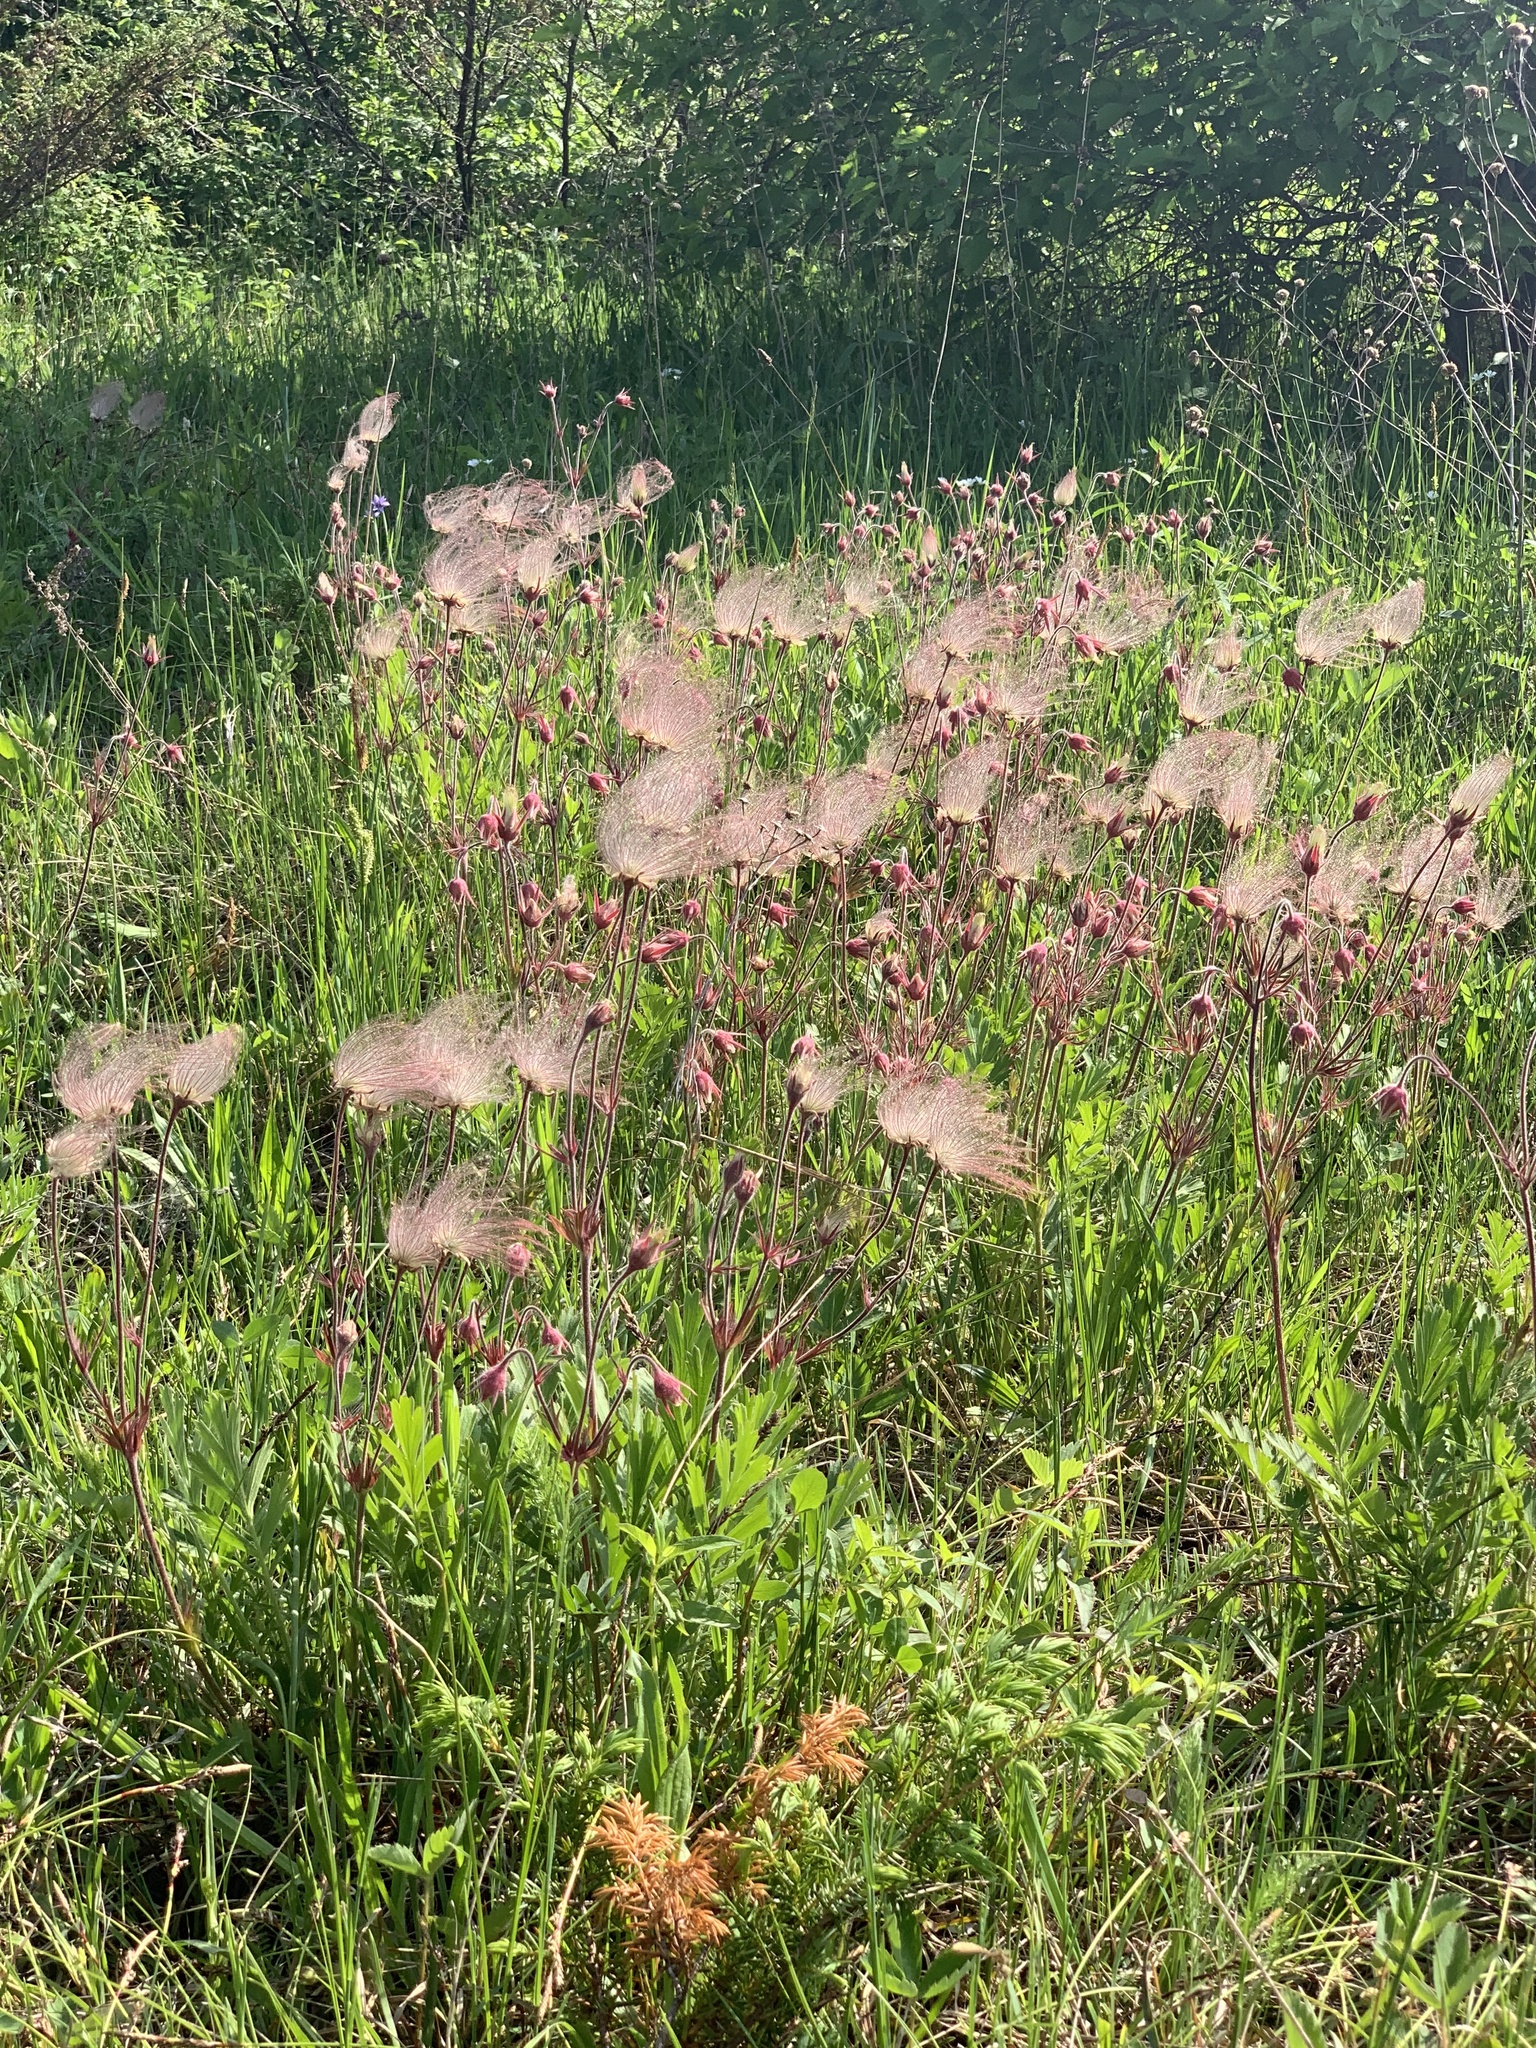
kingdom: Plantae
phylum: Tracheophyta
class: Magnoliopsida
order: Rosales
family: Rosaceae
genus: Geum
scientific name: Geum triflorum
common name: Old man's whiskers
